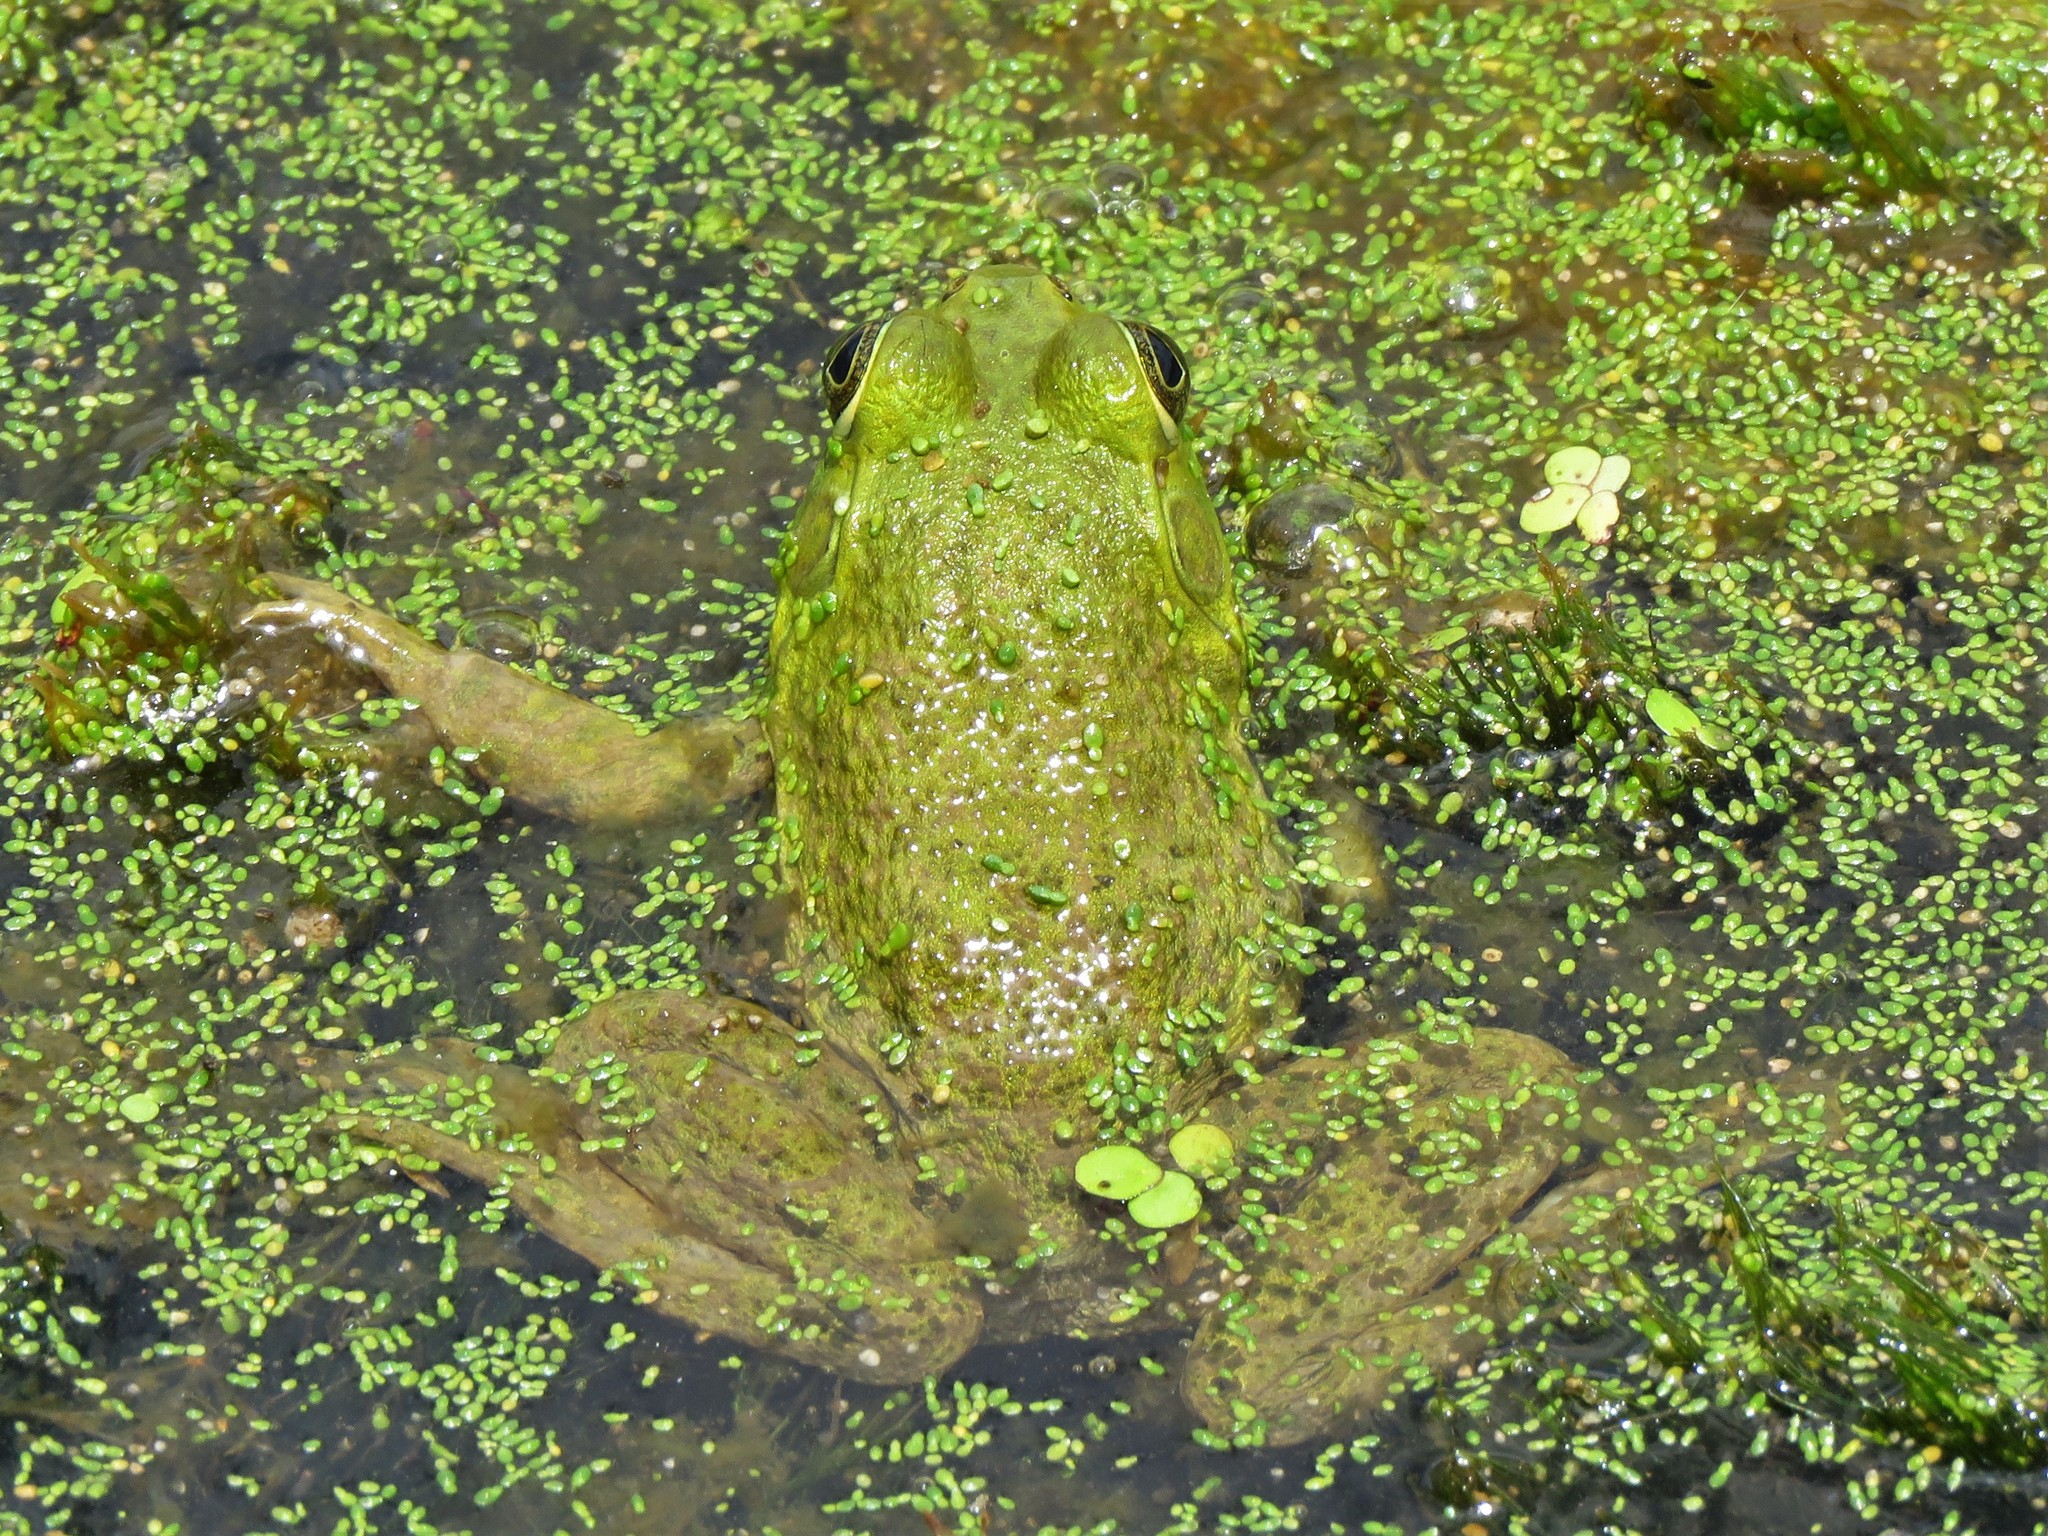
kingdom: Animalia
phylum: Chordata
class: Amphibia
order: Anura
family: Ranidae
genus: Lithobates
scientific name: Lithobates catesbeianus
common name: American bullfrog
